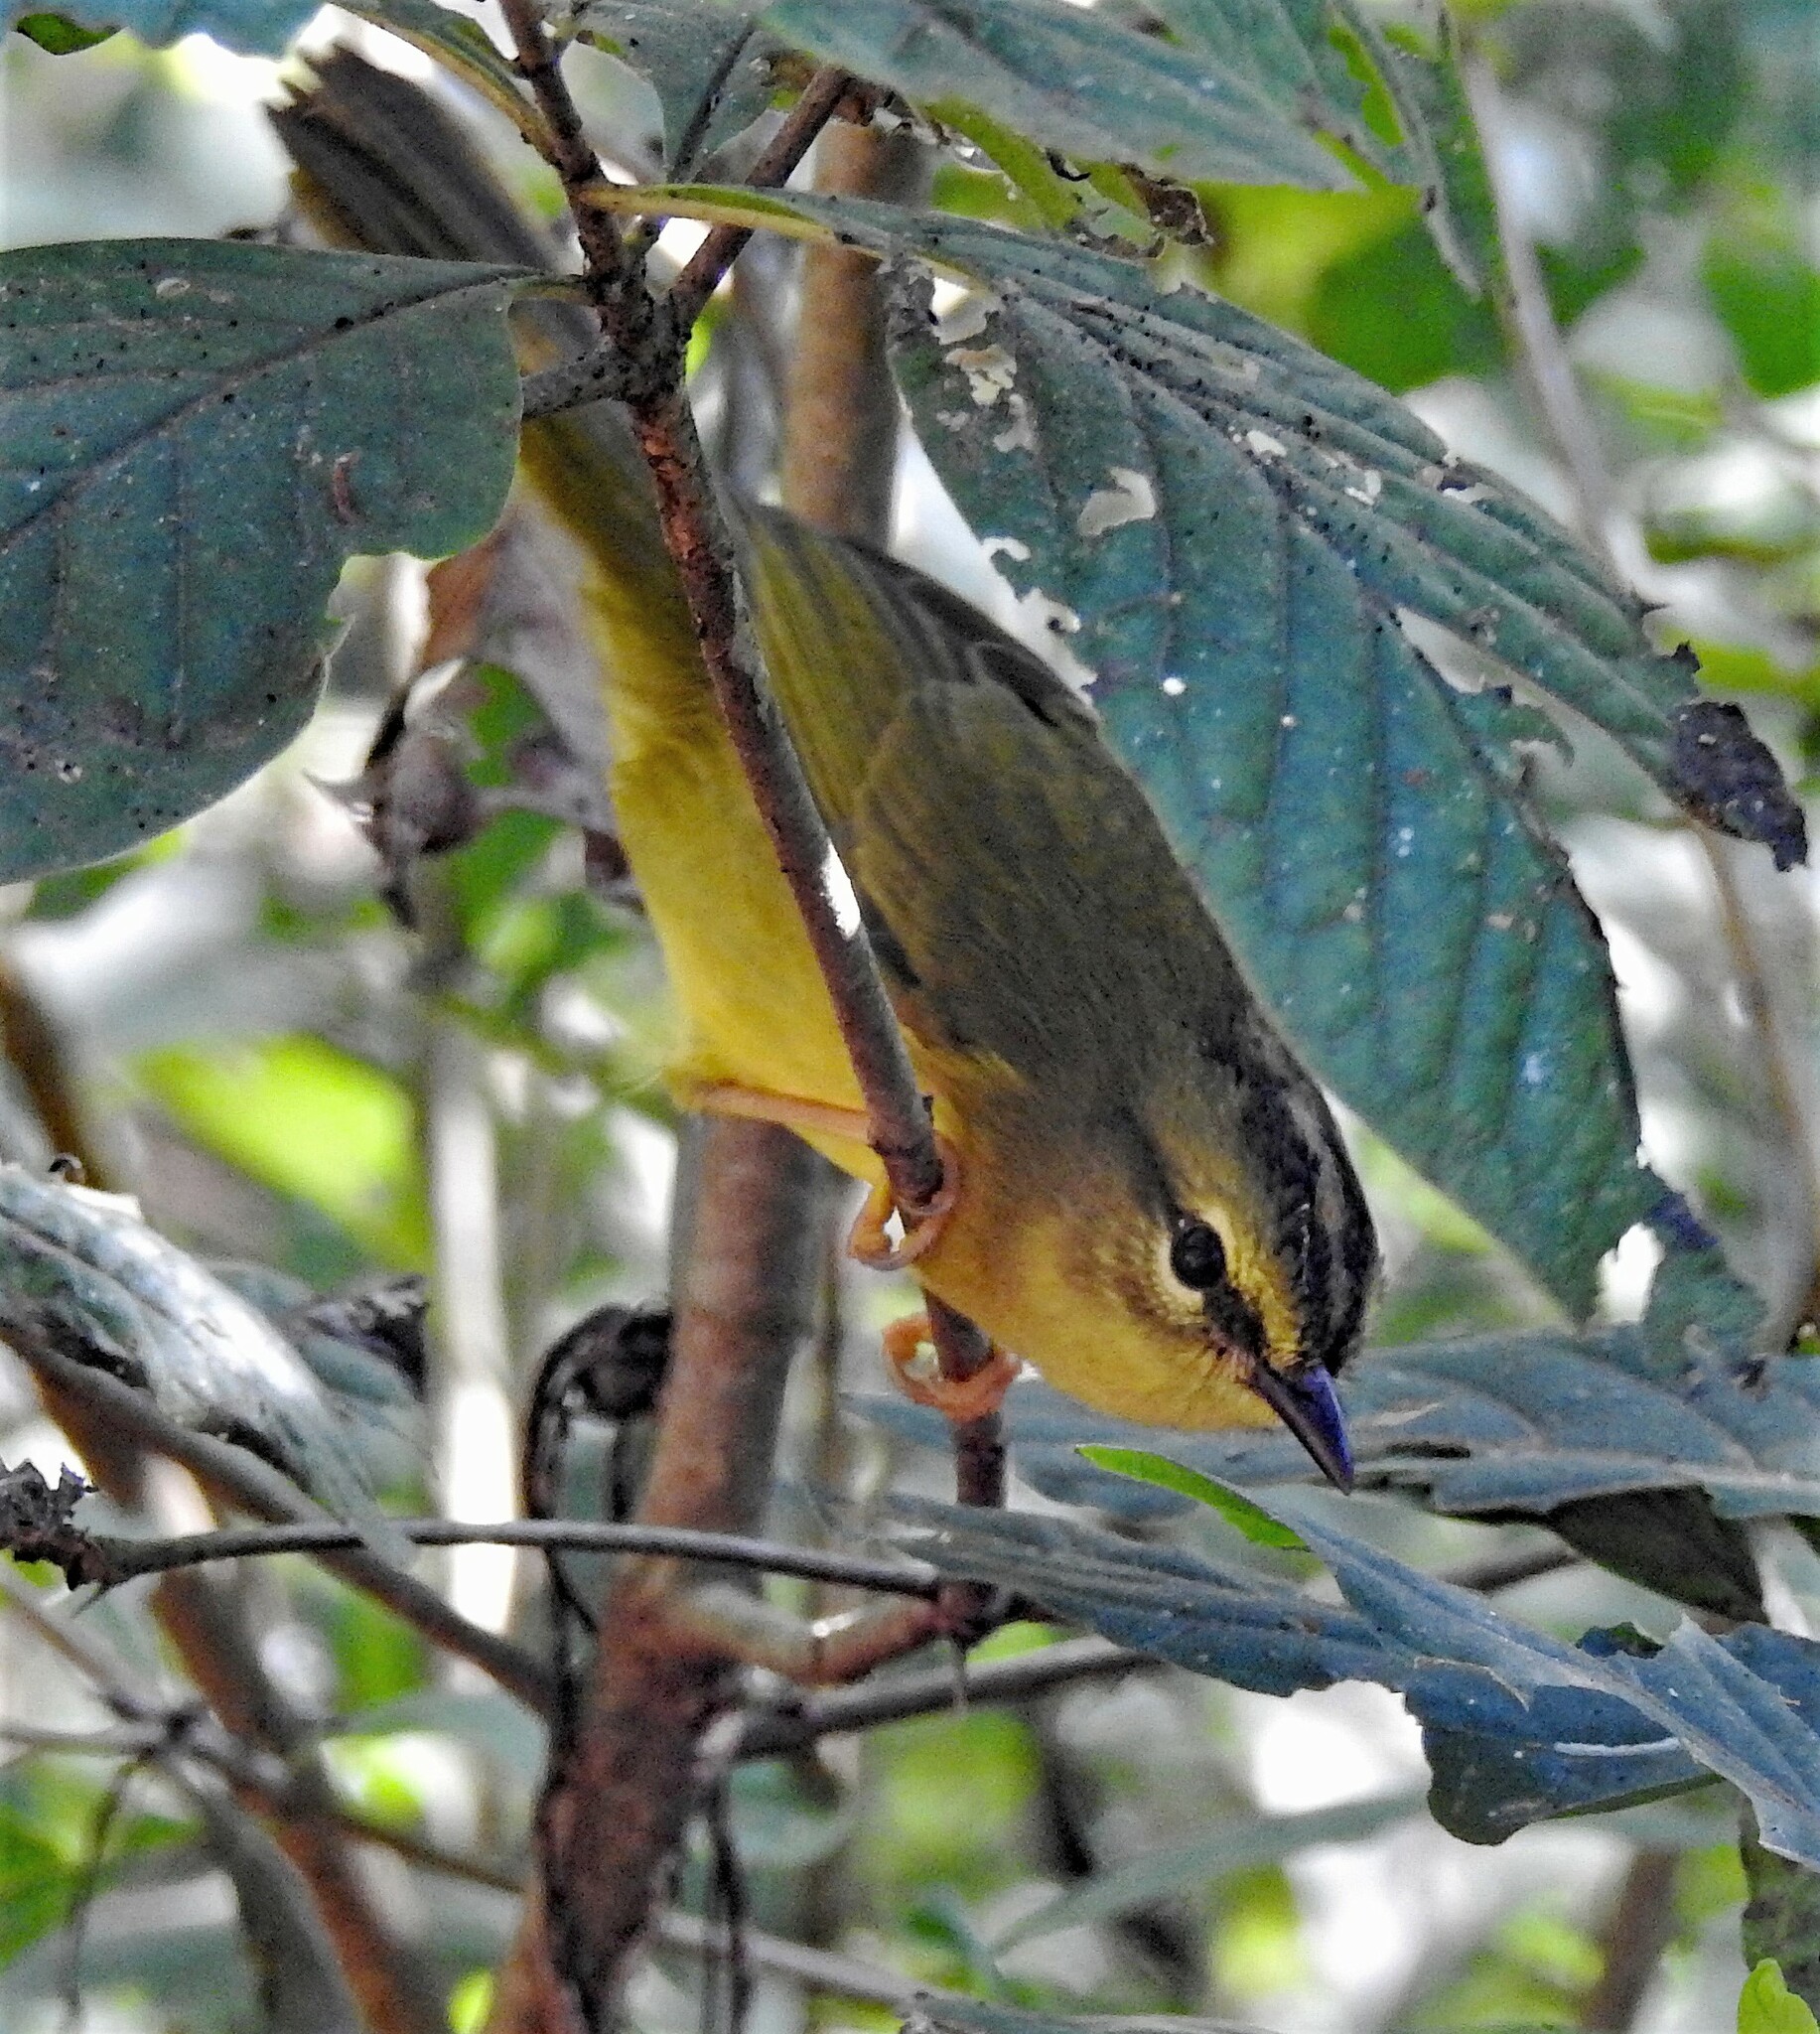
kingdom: Animalia
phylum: Chordata
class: Aves
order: Passeriformes
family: Parulidae
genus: Myiothlypis
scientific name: Myiothlypis bivittata
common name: Two-banded warbler
